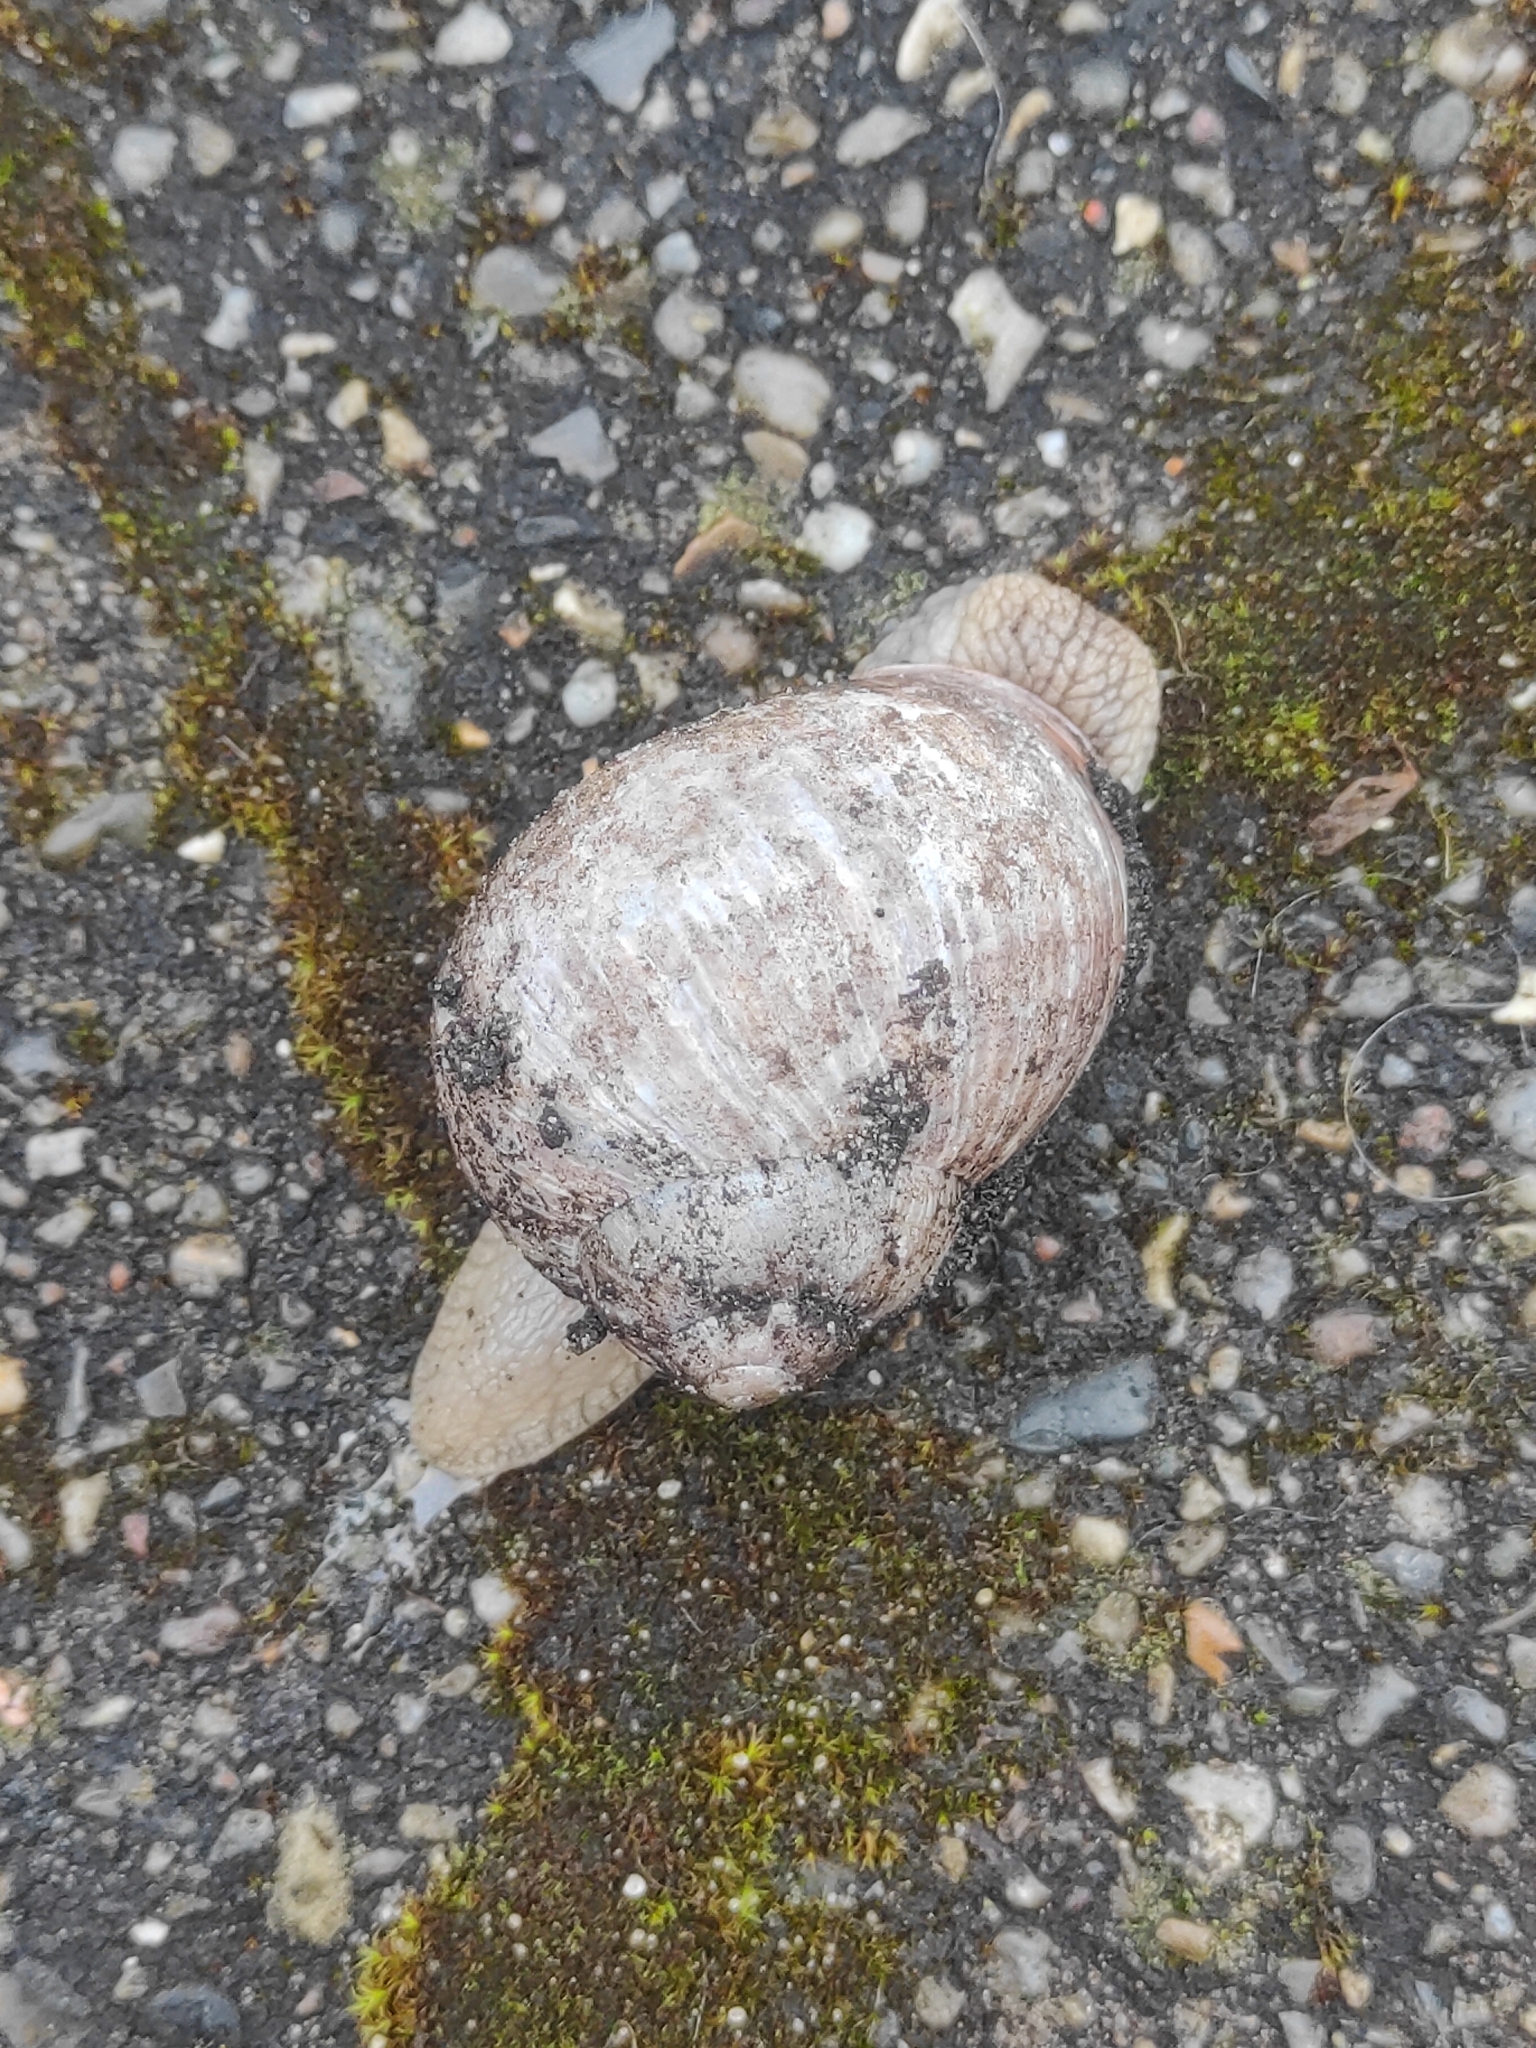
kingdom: Animalia
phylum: Mollusca
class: Gastropoda
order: Stylommatophora
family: Helicidae
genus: Helix
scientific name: Helix pomatia
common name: Roman snail
